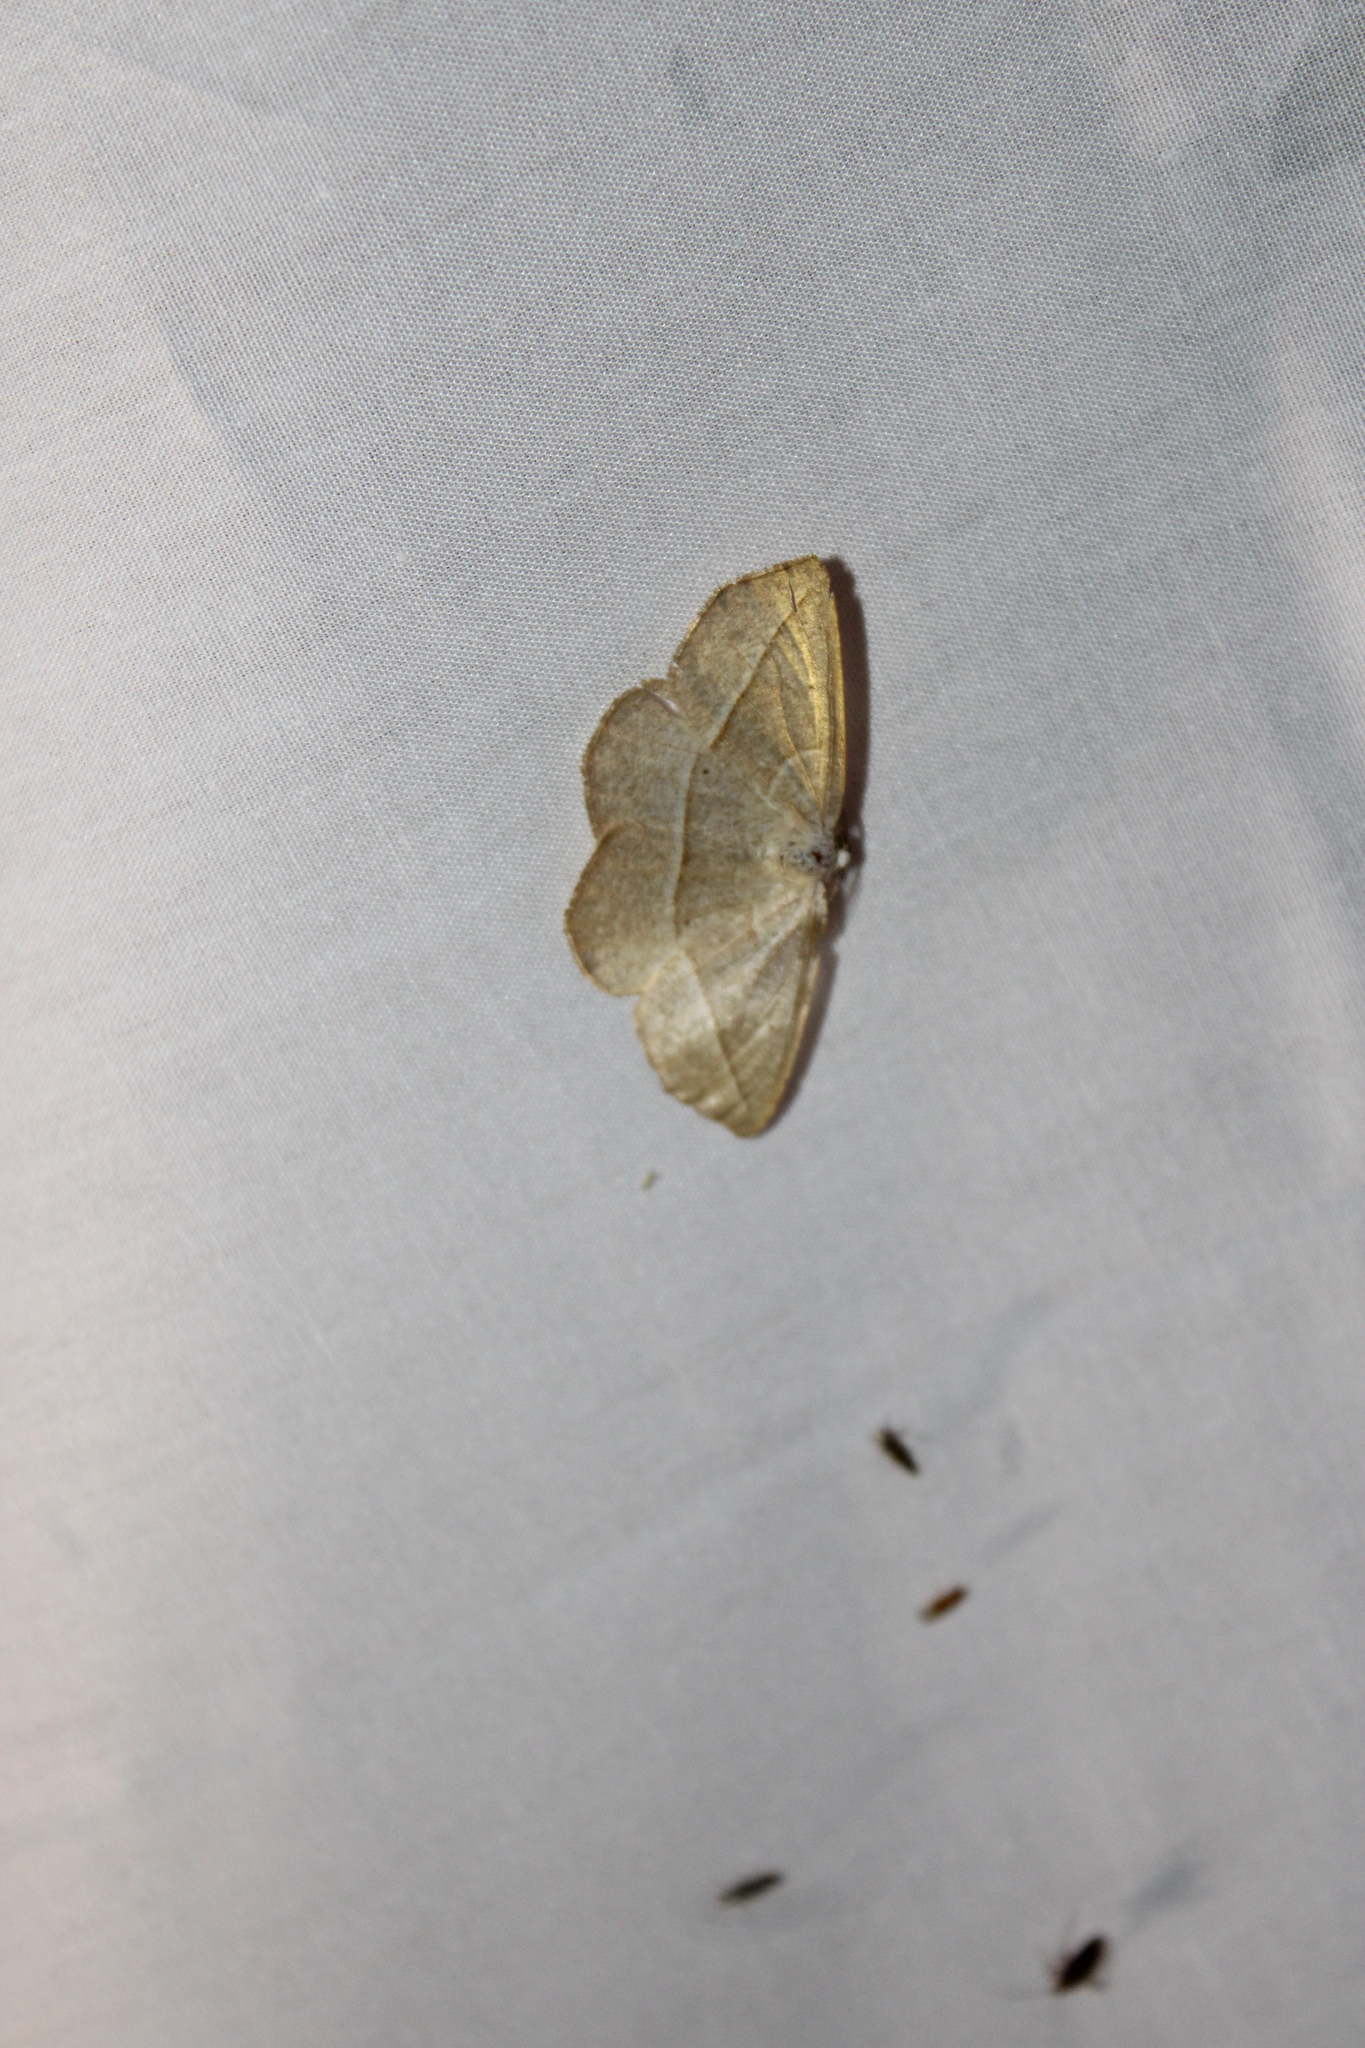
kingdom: Animalia
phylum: Arthropoda
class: Insecta
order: Lepidoptera
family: Geometridae
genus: Eusarca
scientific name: Eusarca confusaria
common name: Confused eusarca
